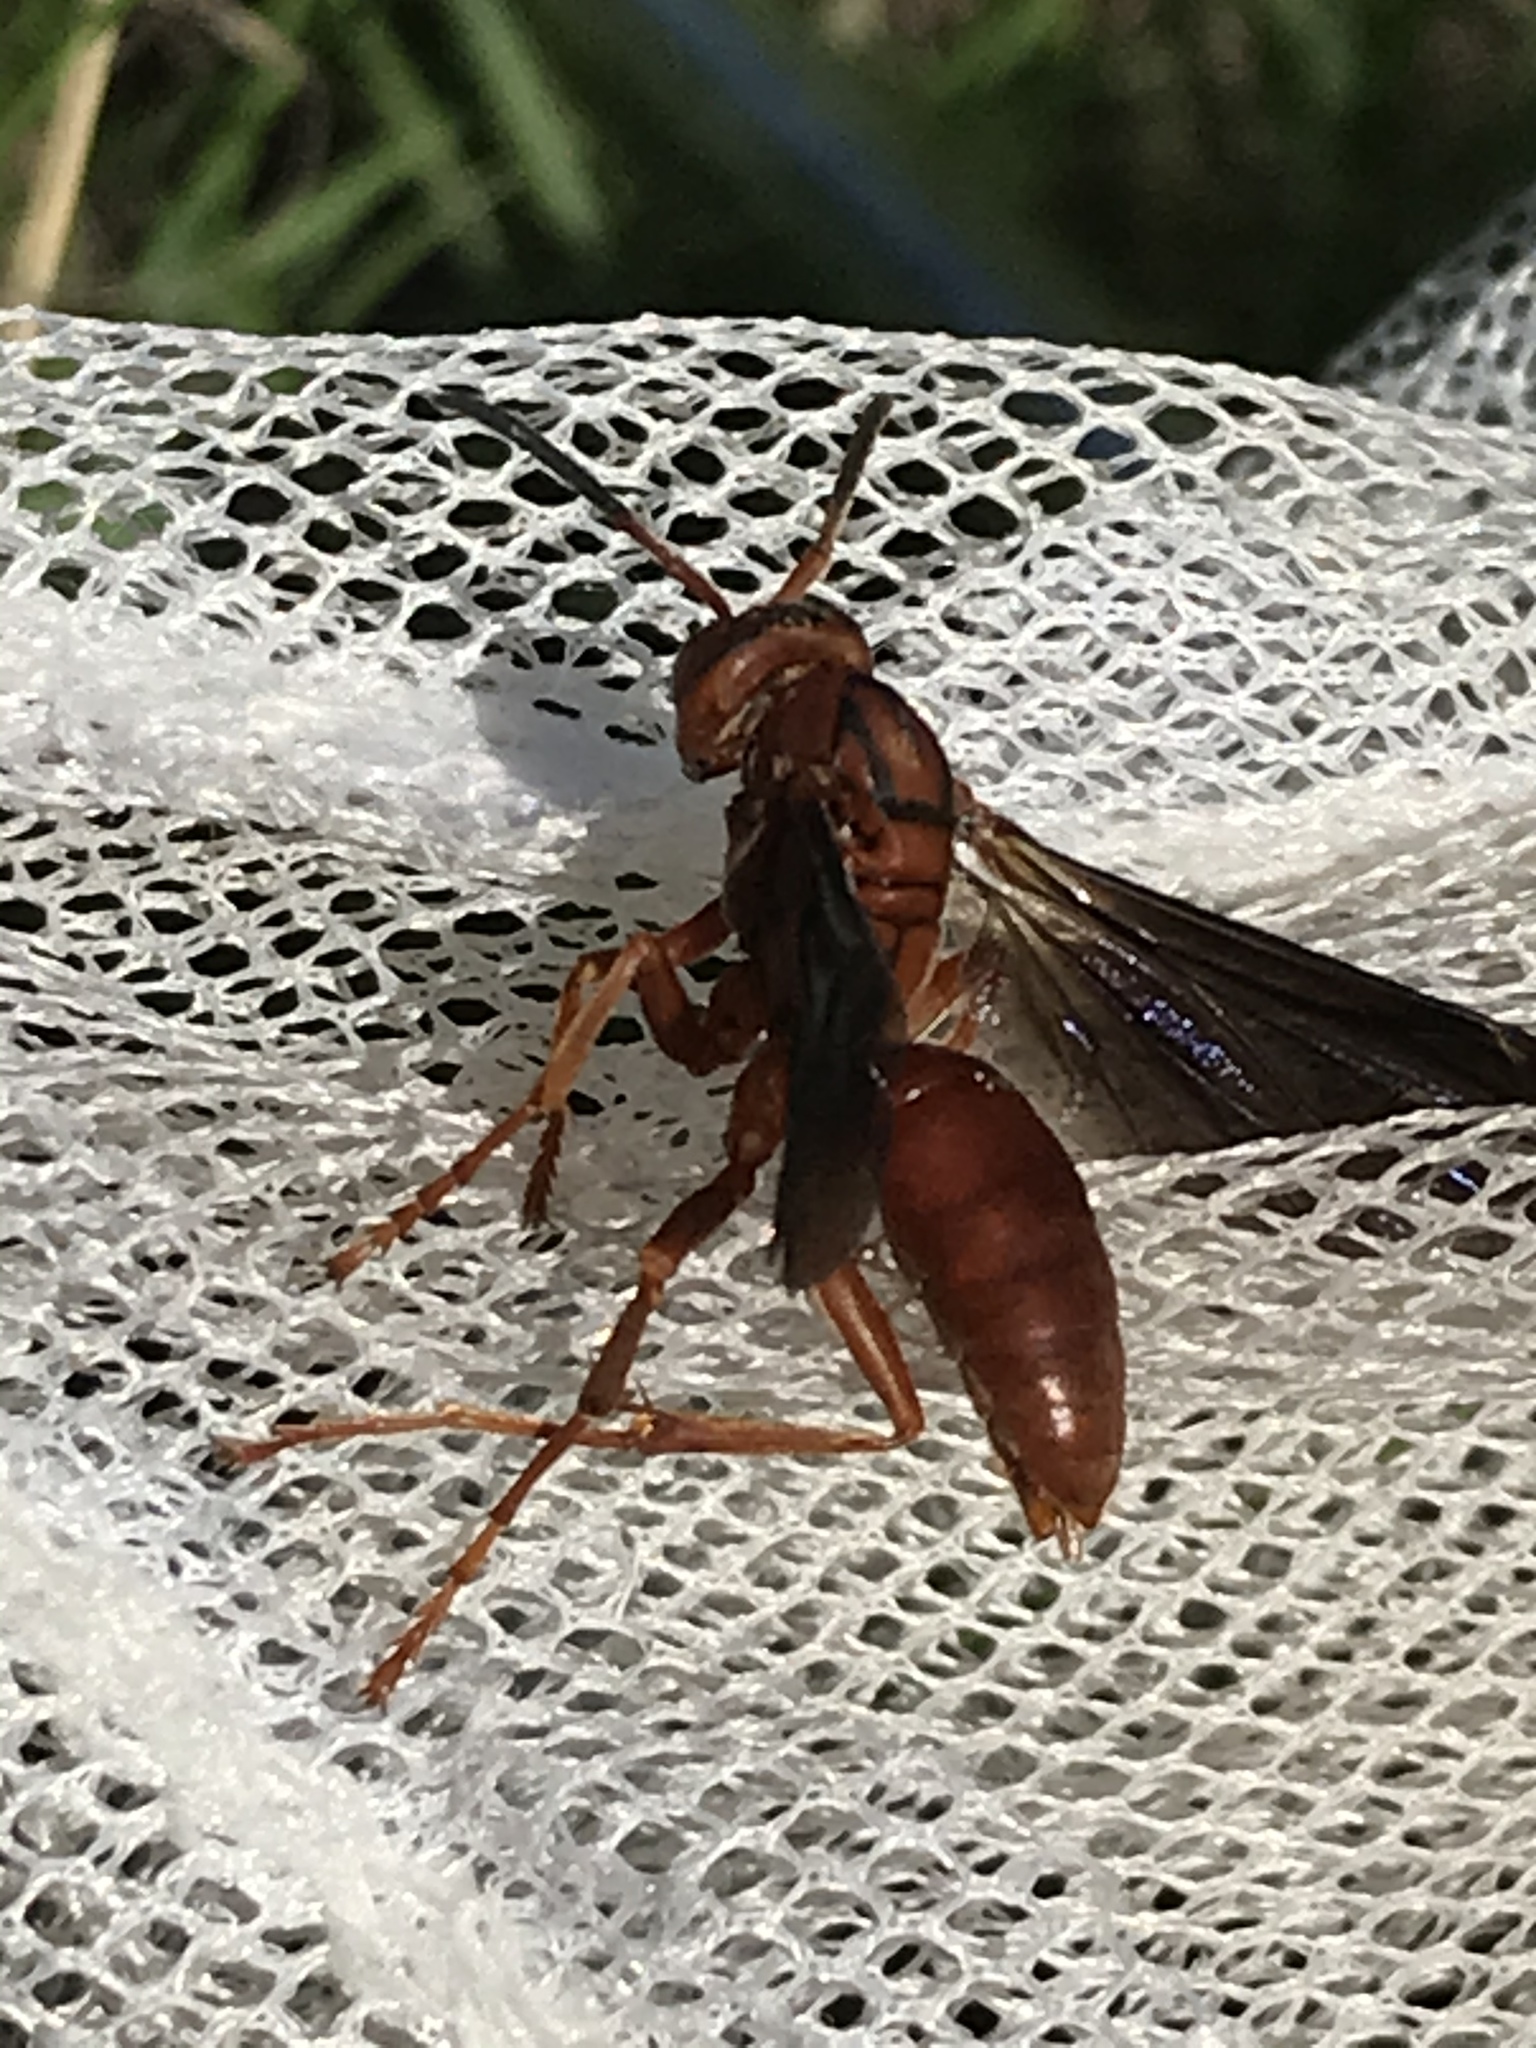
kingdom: Animalia
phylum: Arthropoda
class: Insecta
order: Hymenoptera
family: Eumenidae
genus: Polistes
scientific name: Polistes carolina
